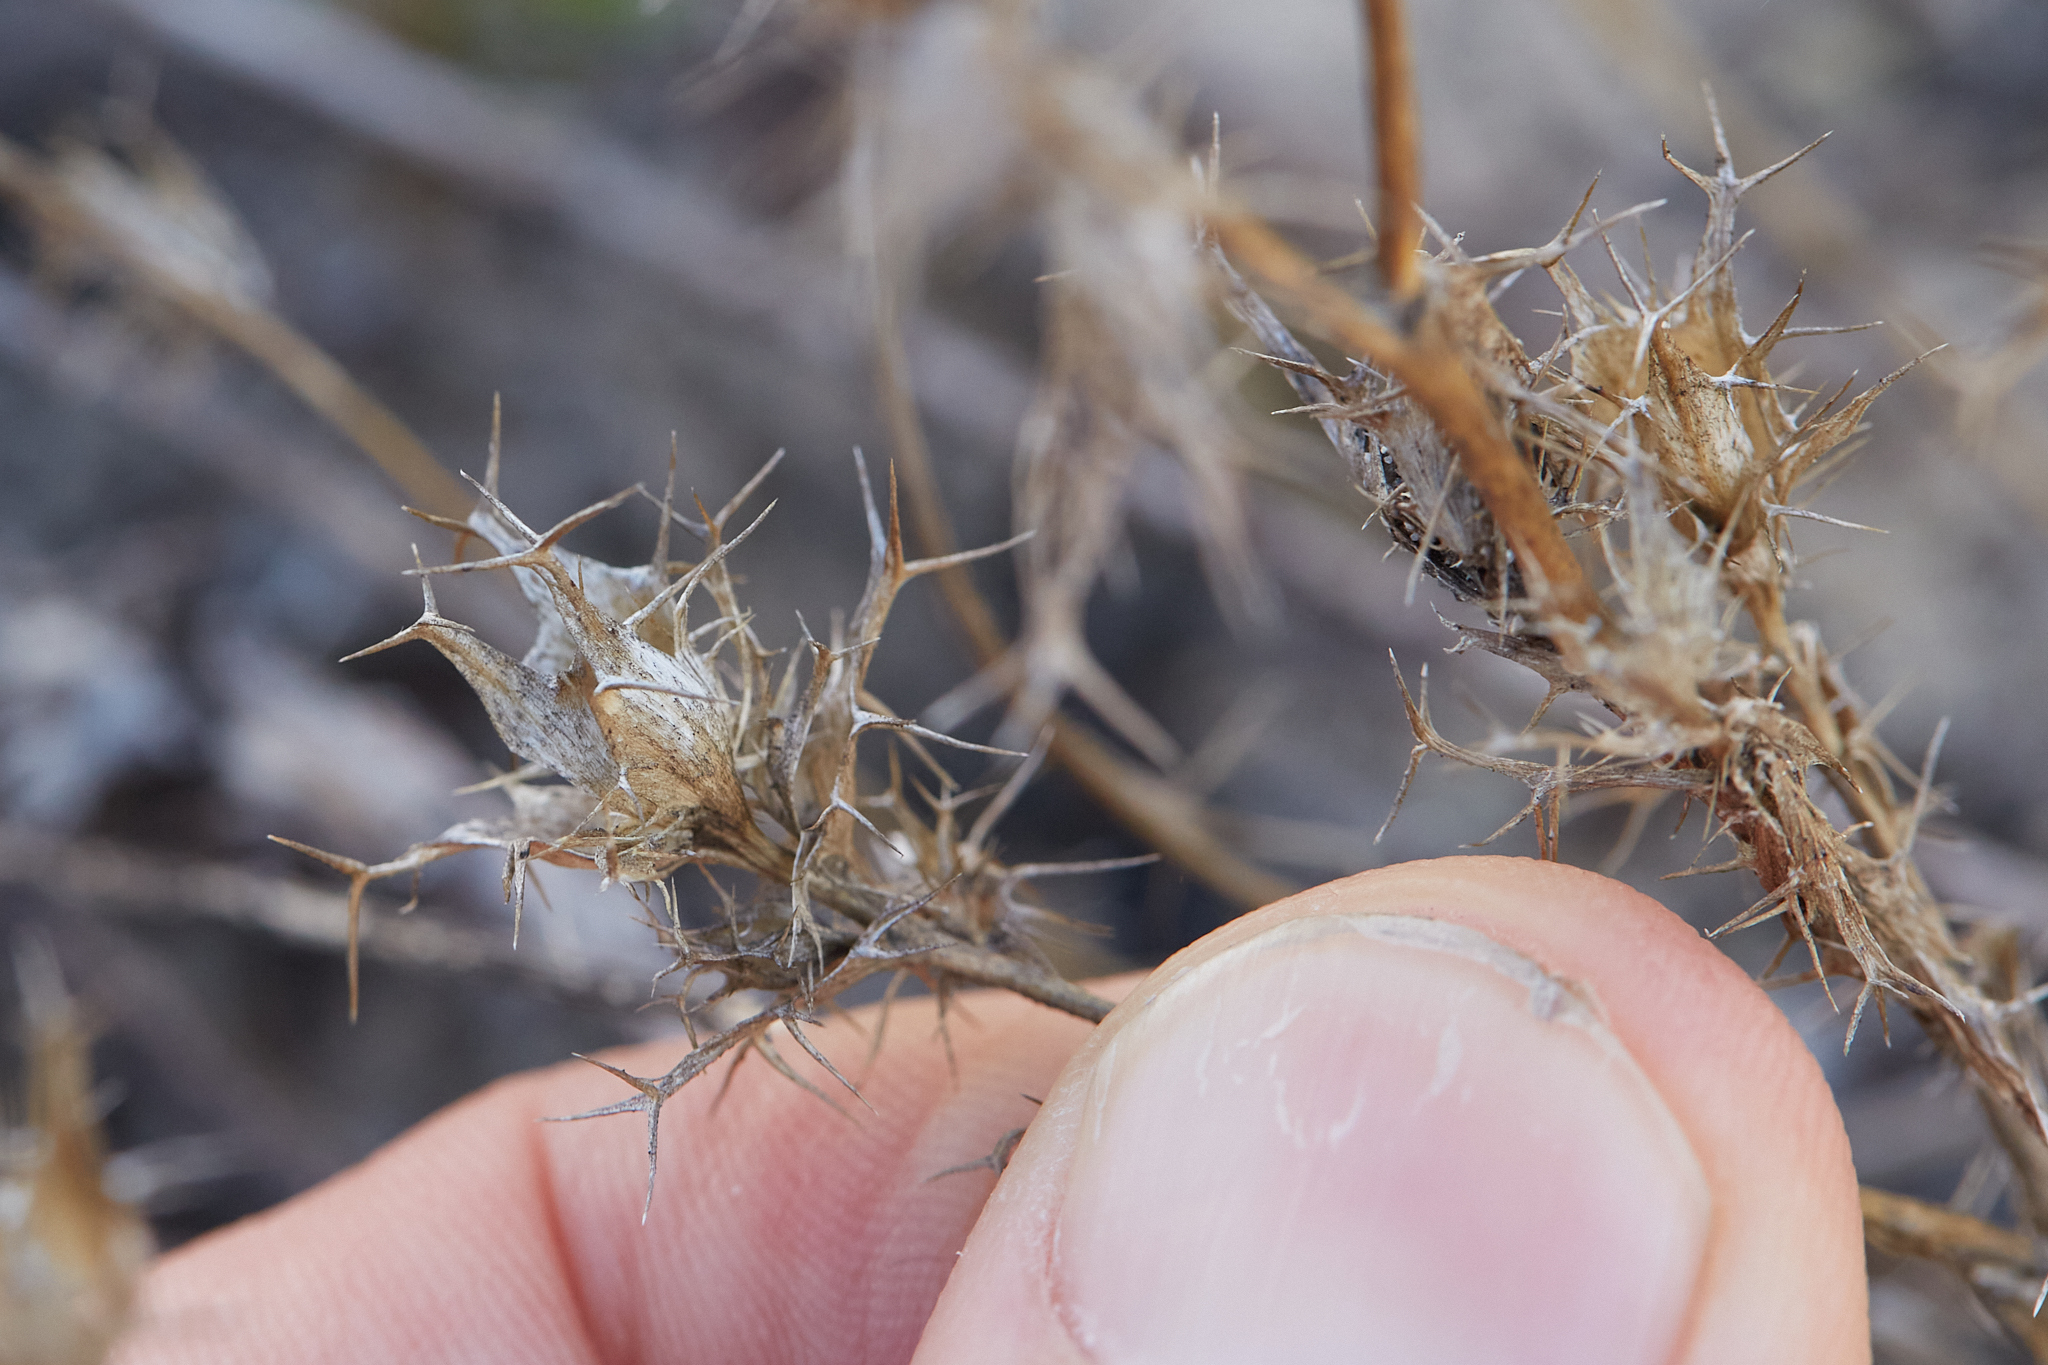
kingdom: Plantae
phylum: Tracheophyta
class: Magnoliopsida
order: Ericales
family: Polemoniaceae
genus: Navarretia
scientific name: Navarretia hamata
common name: Hooked navarretia
